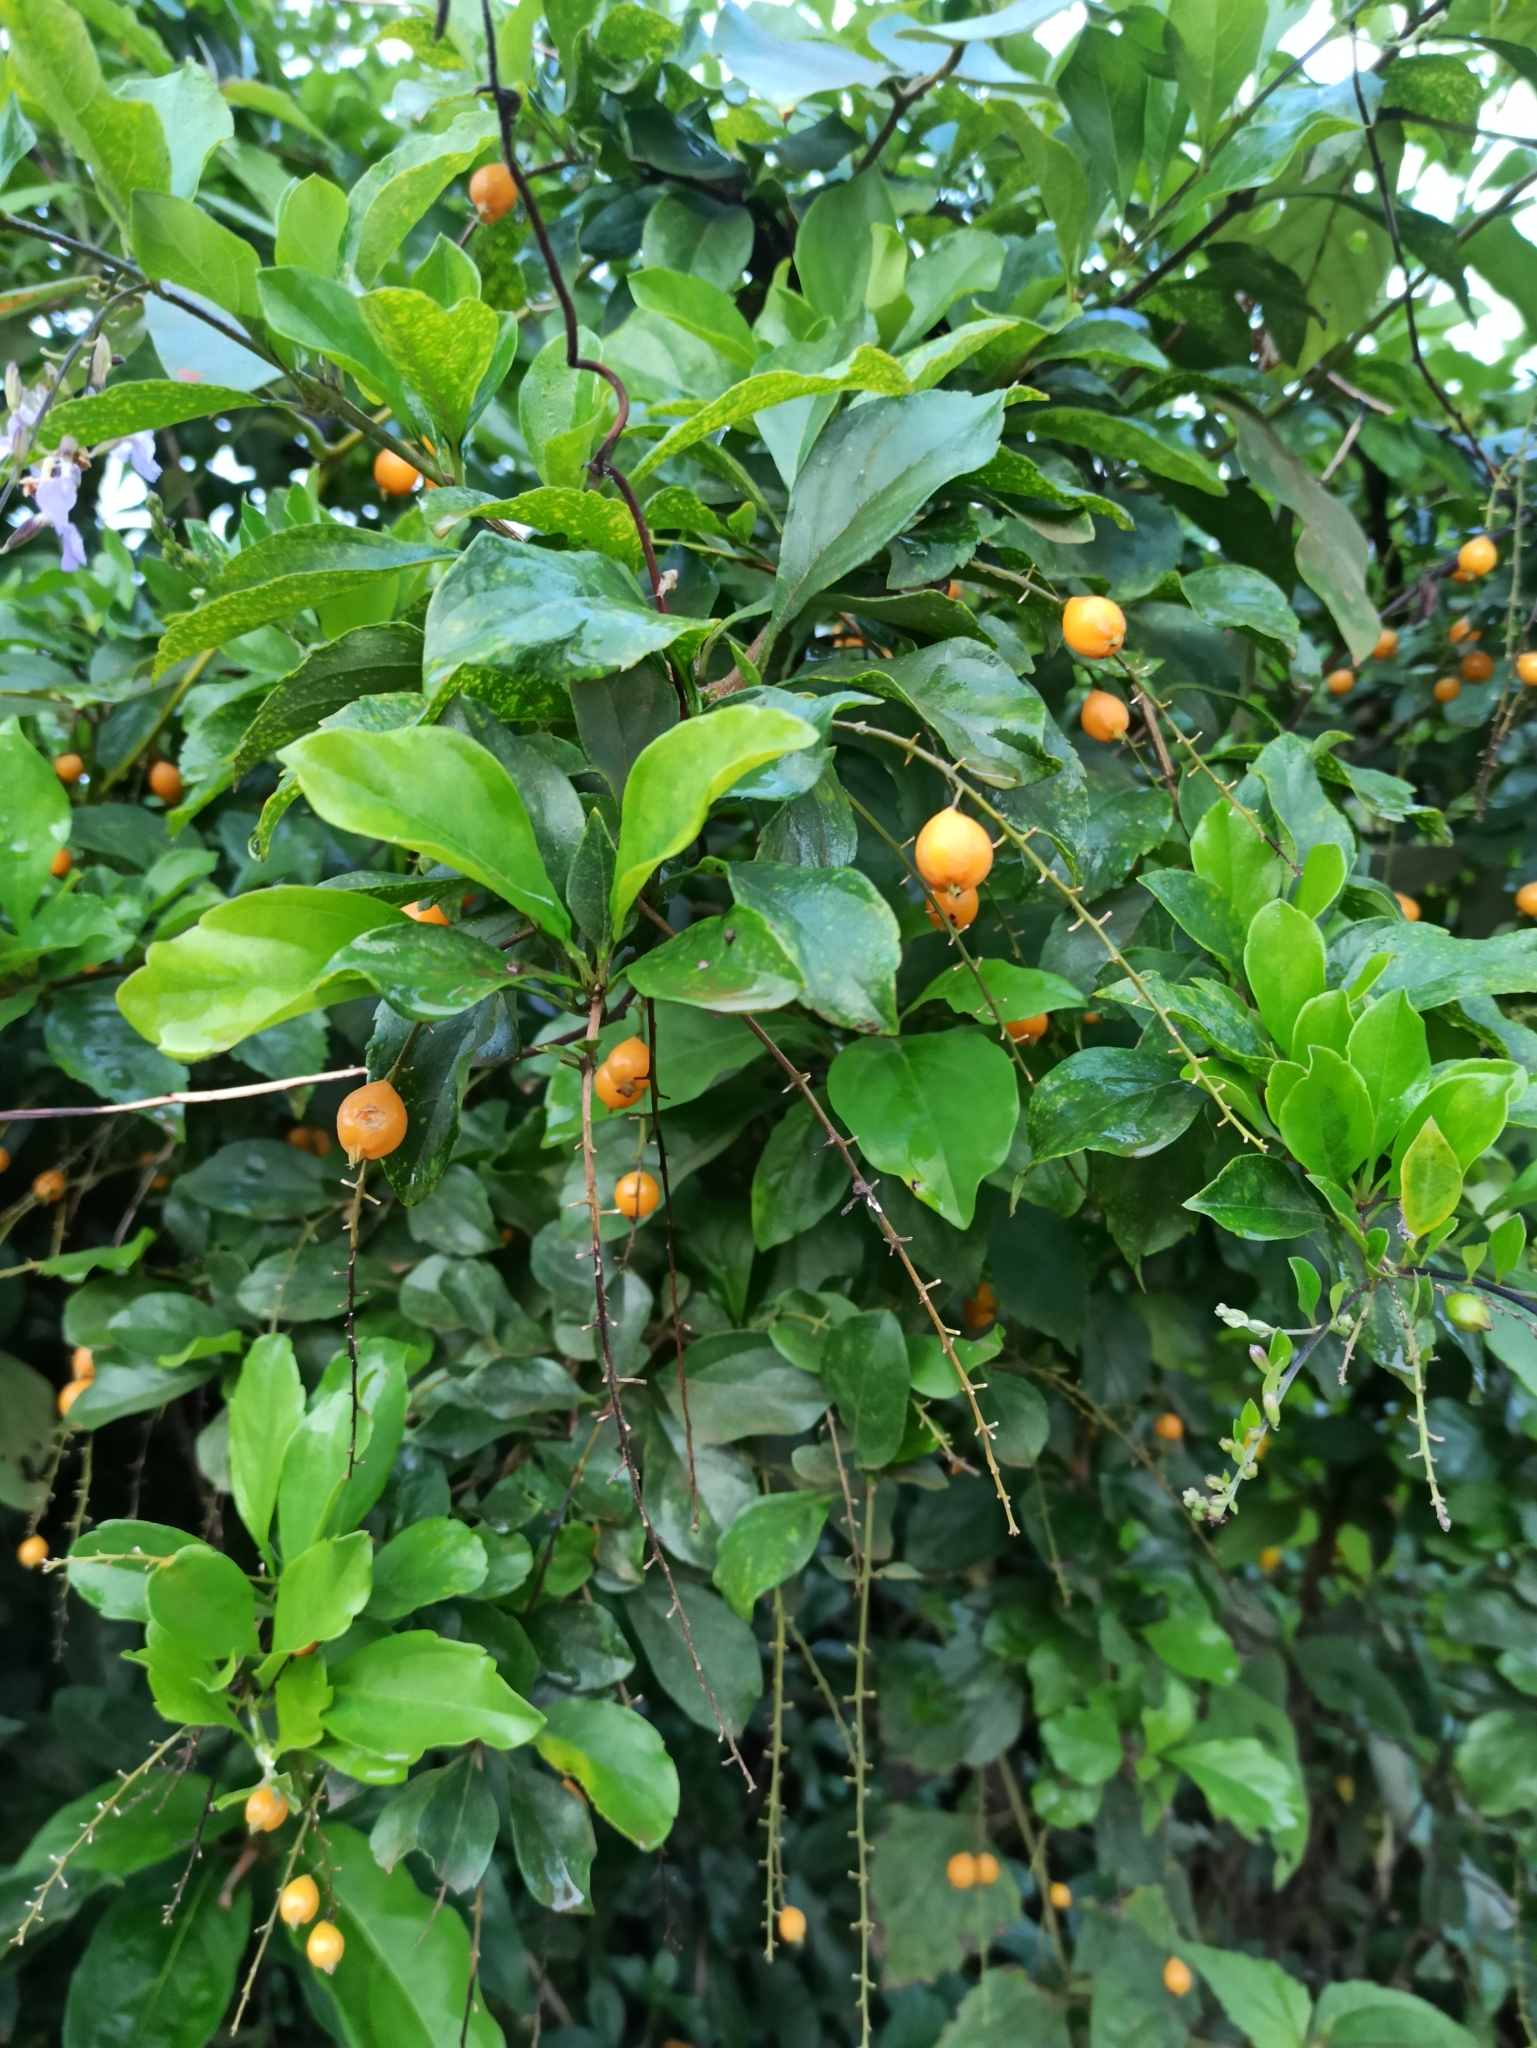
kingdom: Plantae
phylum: Tracheophyta
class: Magnoliopsida
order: Lamiales
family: Verbenaceae
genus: Duranta
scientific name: Duranta erecta
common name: Golden dewdrops
